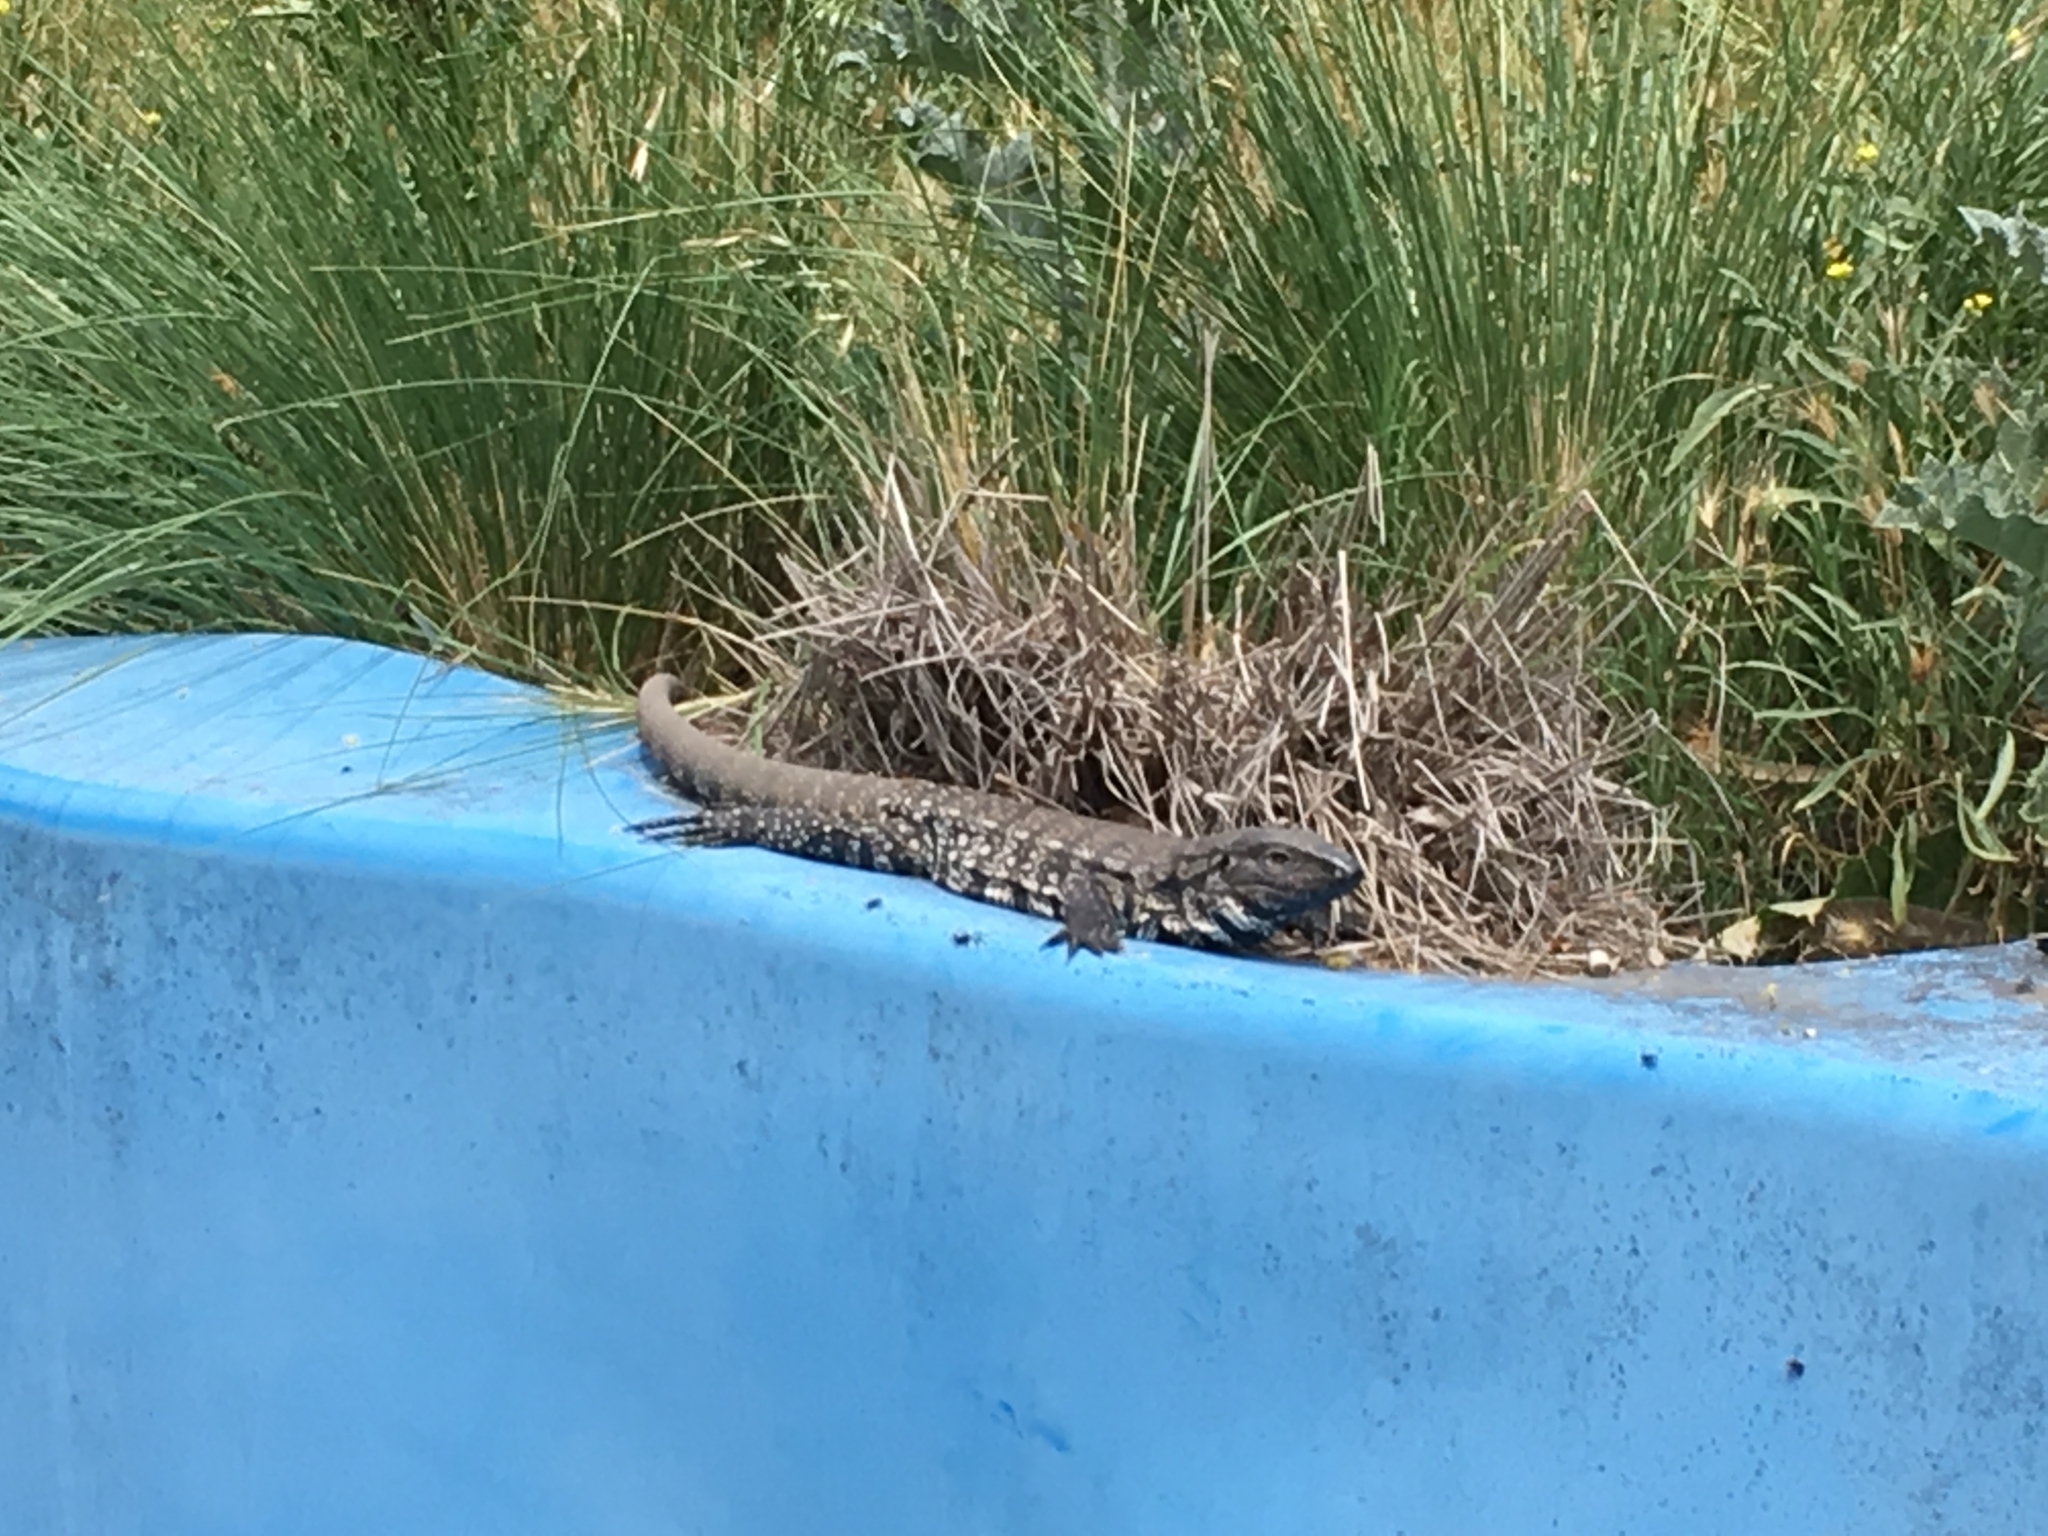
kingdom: Animalia
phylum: Chordata
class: Squamata
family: Teiidae
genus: Salvator
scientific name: Salvator merianae
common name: Argentine black and white tegu
